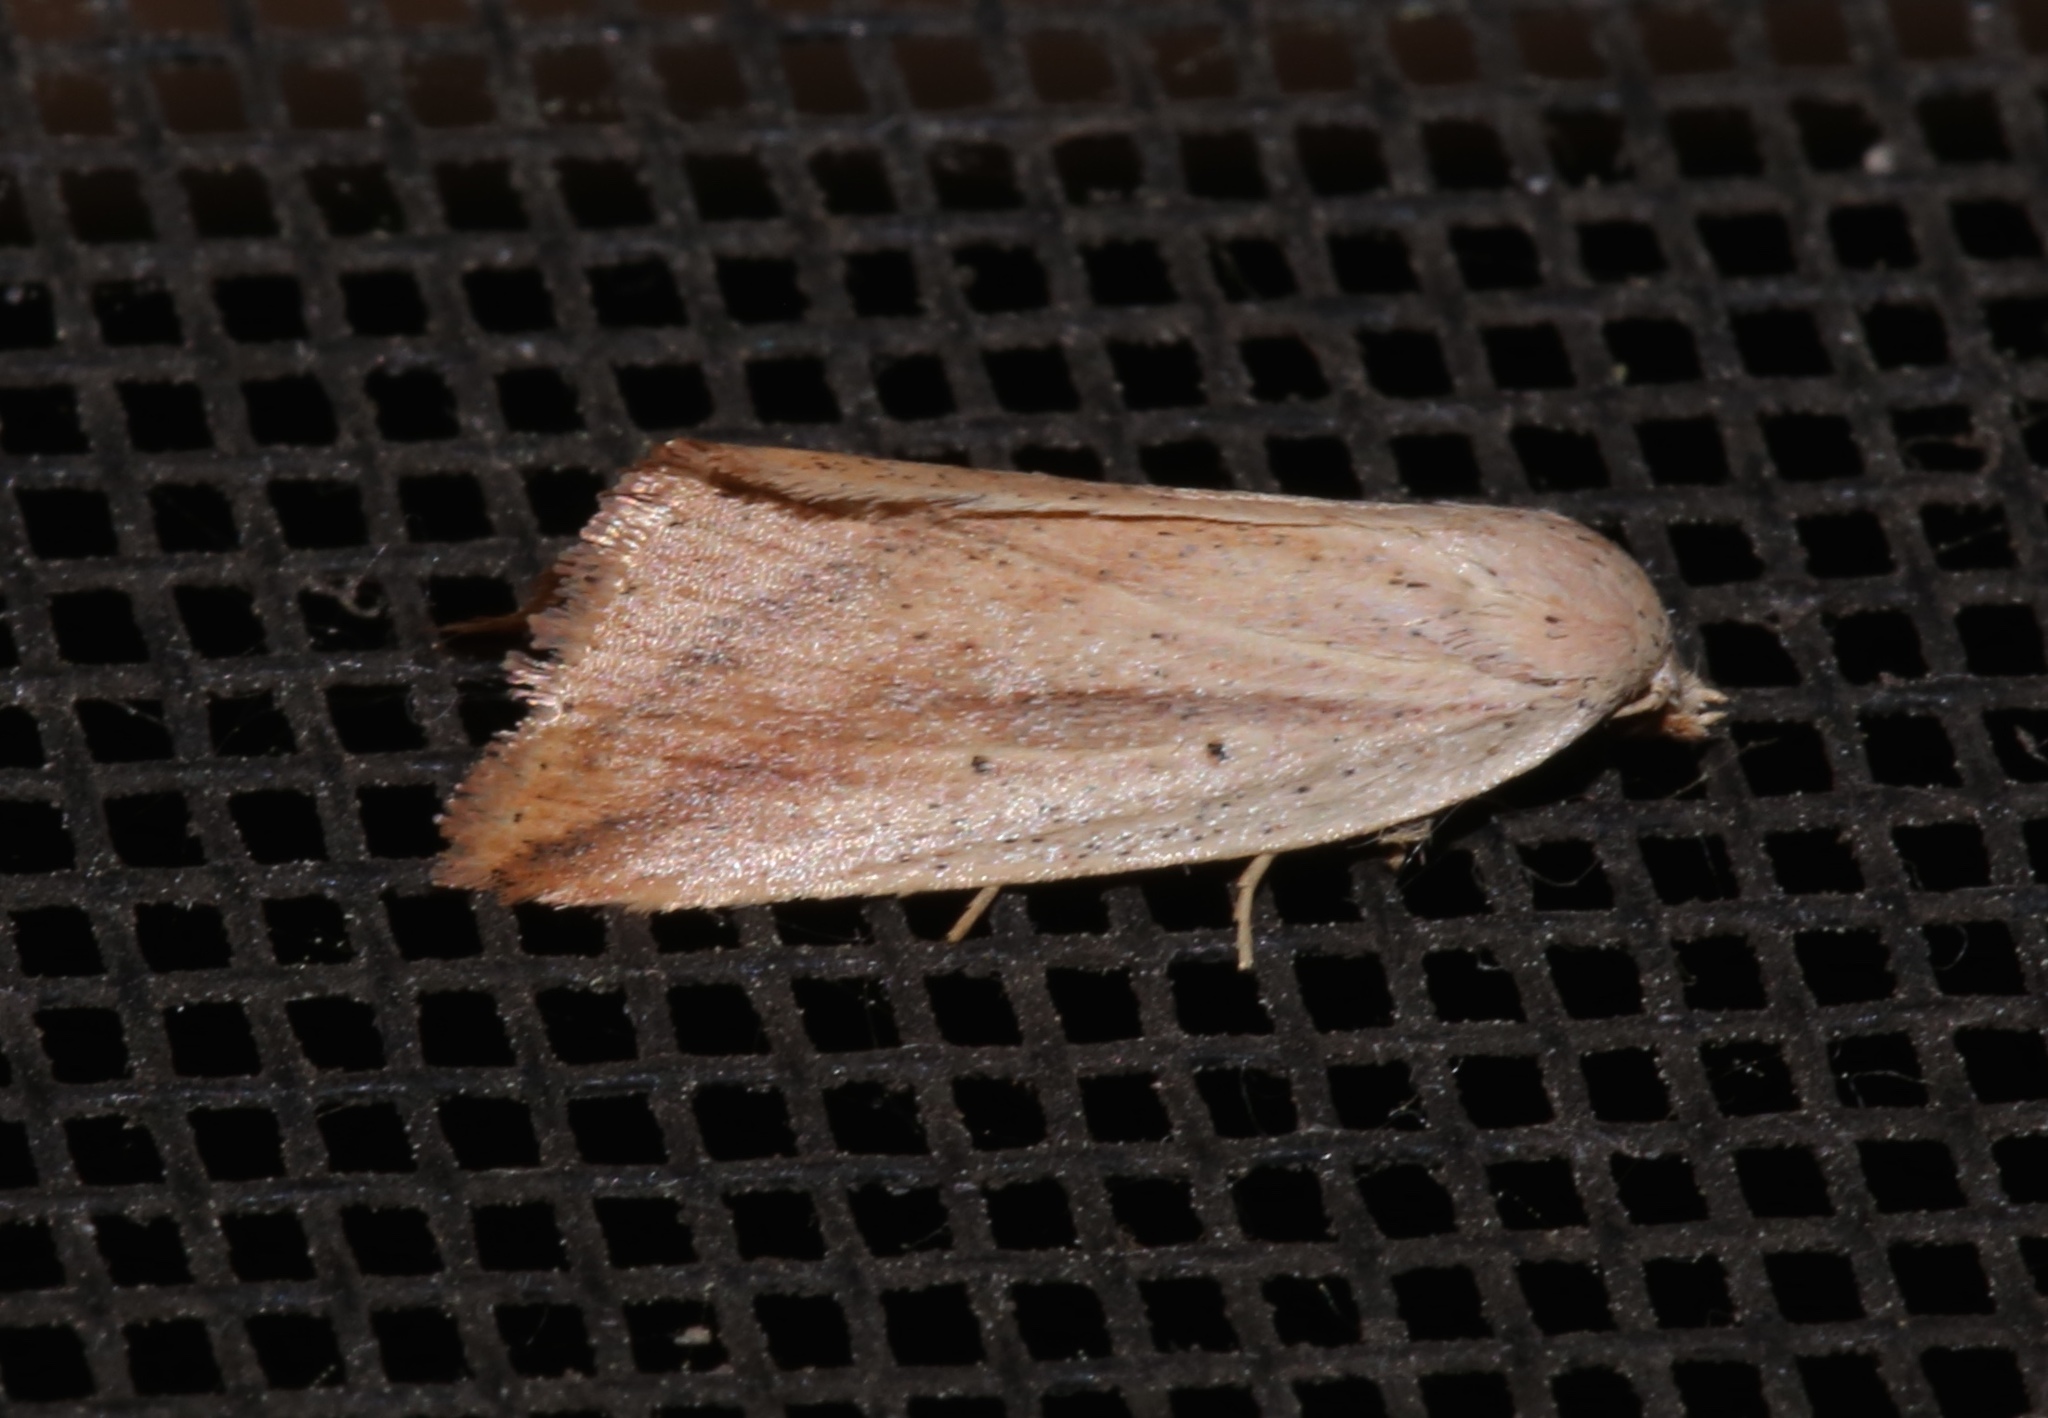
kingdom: Animalia
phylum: Arthropoda
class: Insecta
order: Lepidoptera
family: Noctuidae
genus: Amolita
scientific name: Amolita fessa
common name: Feeble grass moth
